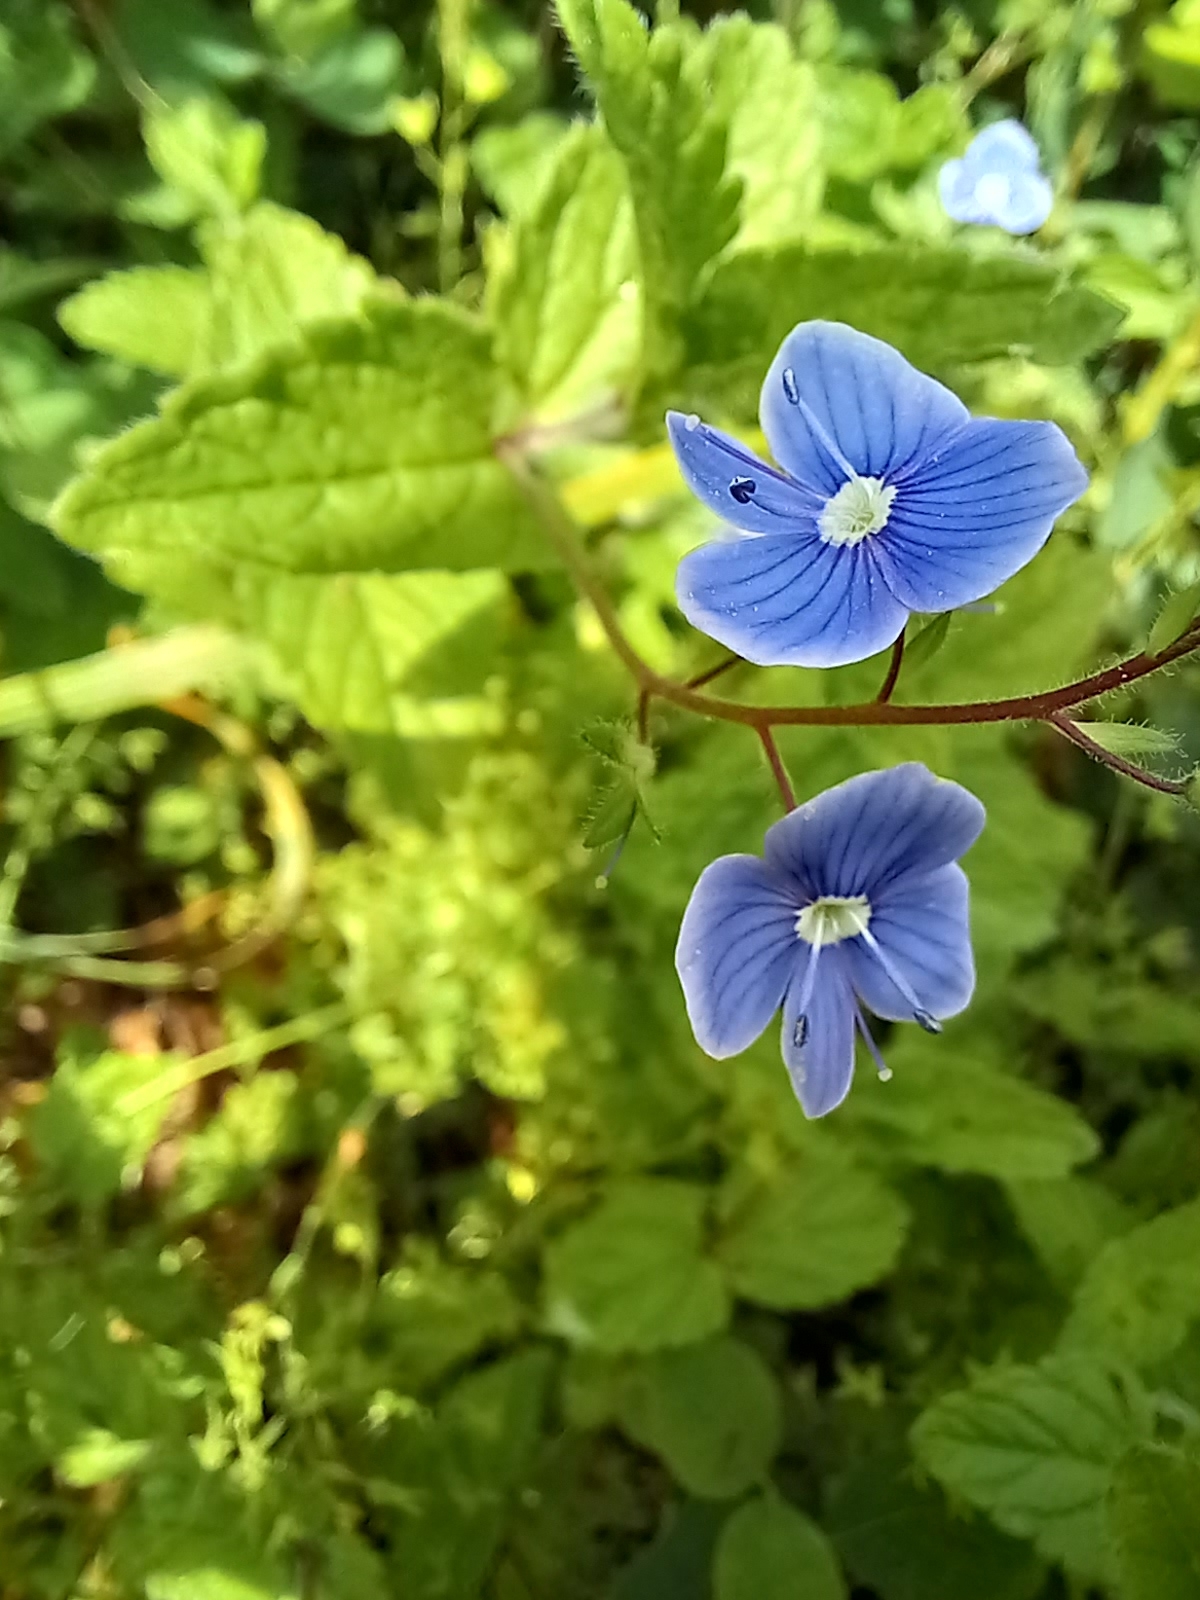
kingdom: Plantae
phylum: Tracheophyta
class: Magnoliopsida
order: Lamiales
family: Plantaginaceae
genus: Veronica
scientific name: Veronica montana
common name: Wood speedwell
